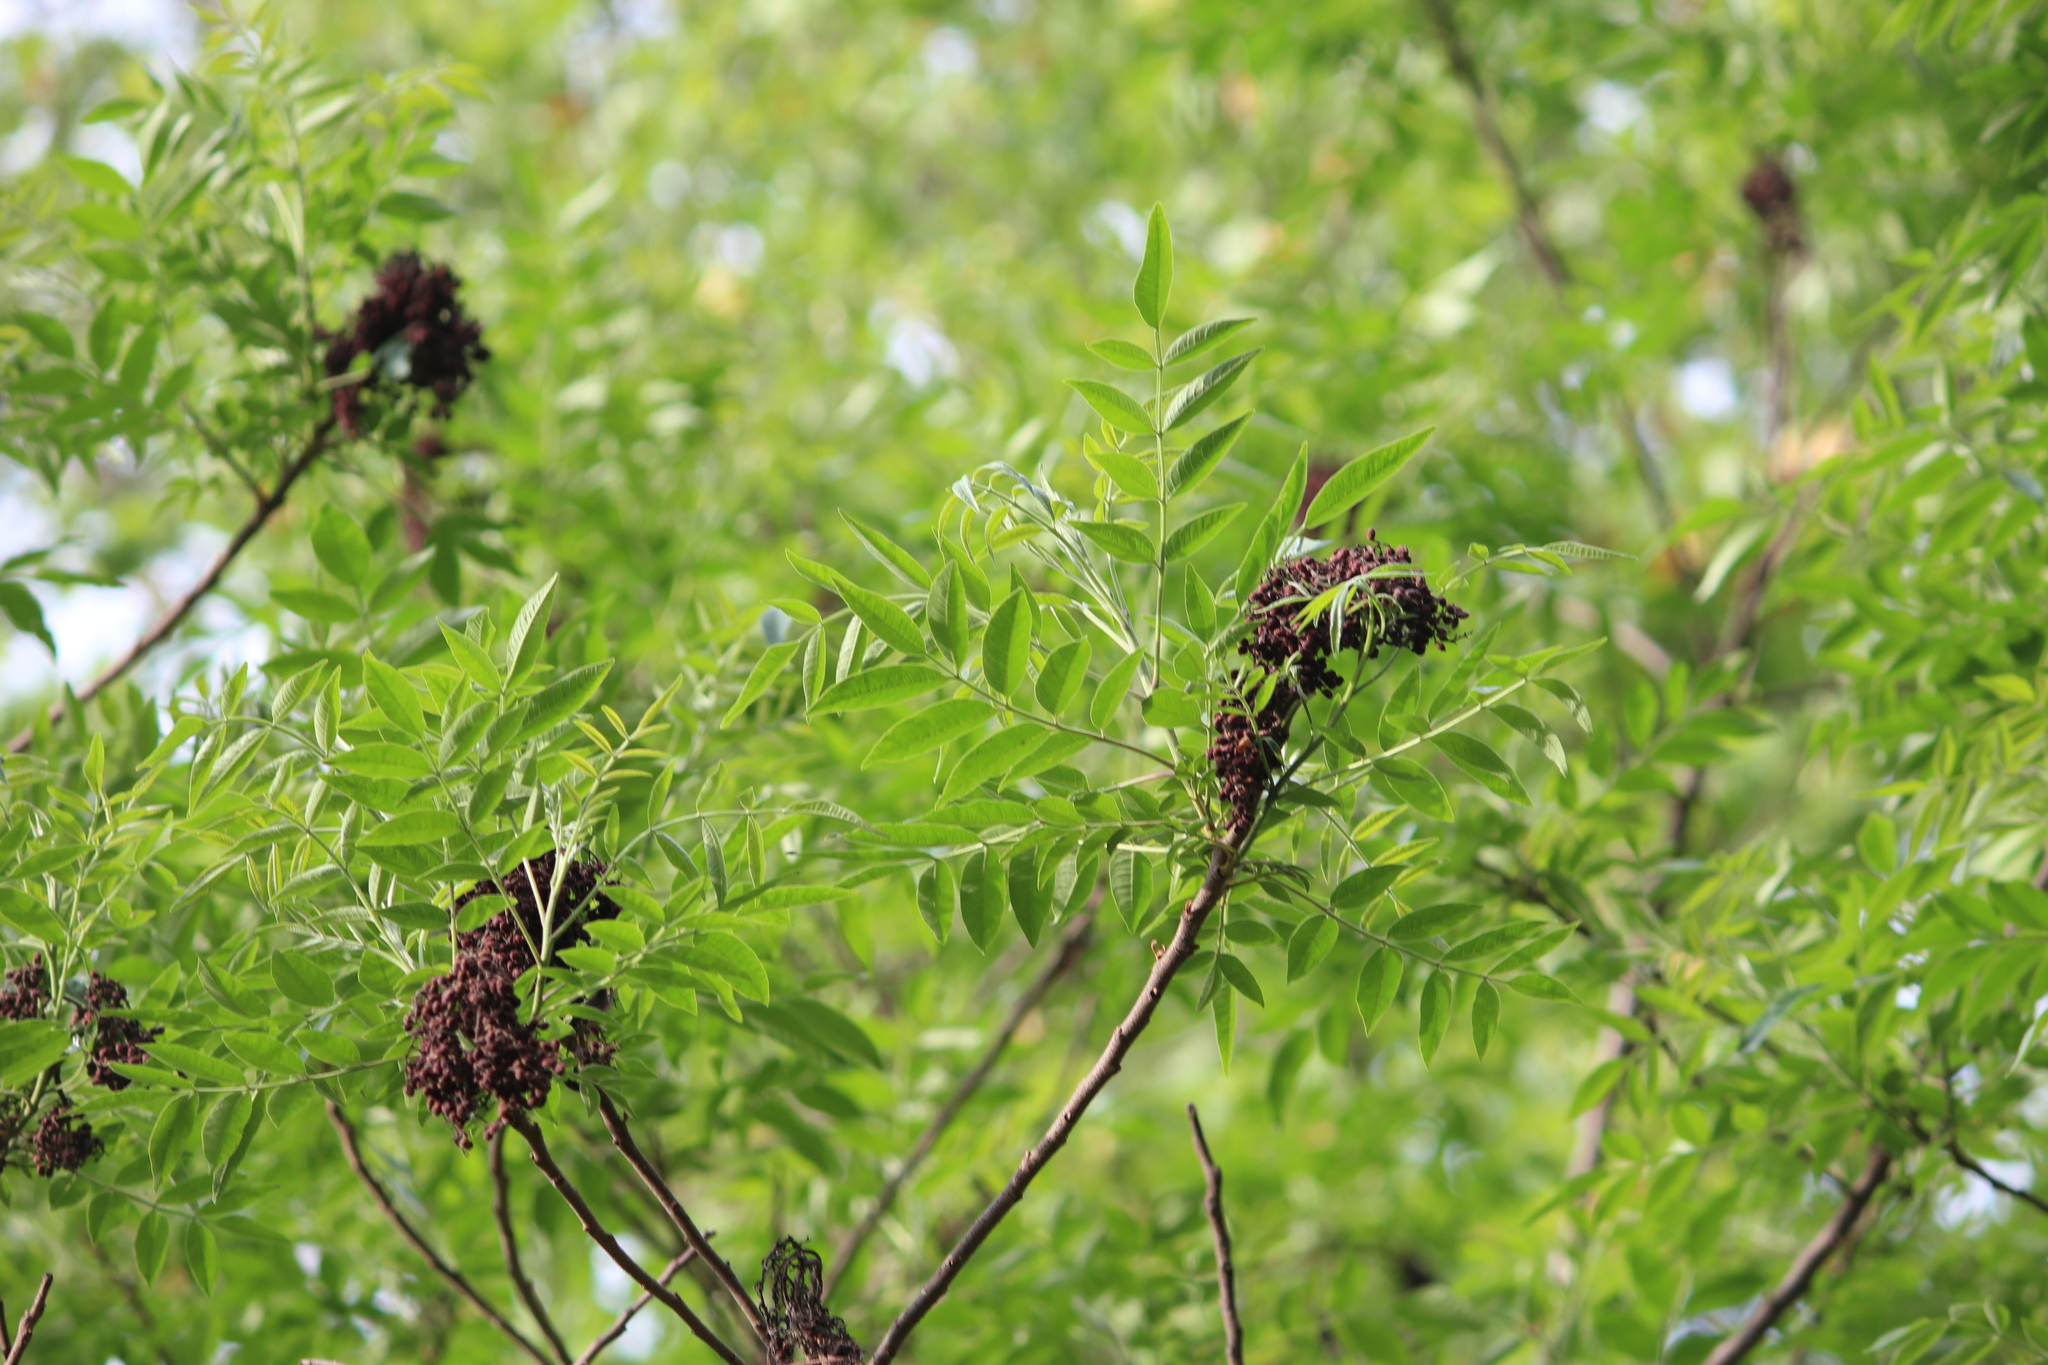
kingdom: Plantae
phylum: Tracheophyta
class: Magnoliopsida
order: Sapindales
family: Anacardiaceae
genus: Rhus
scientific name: Rhus copallina
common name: Shining sumac
